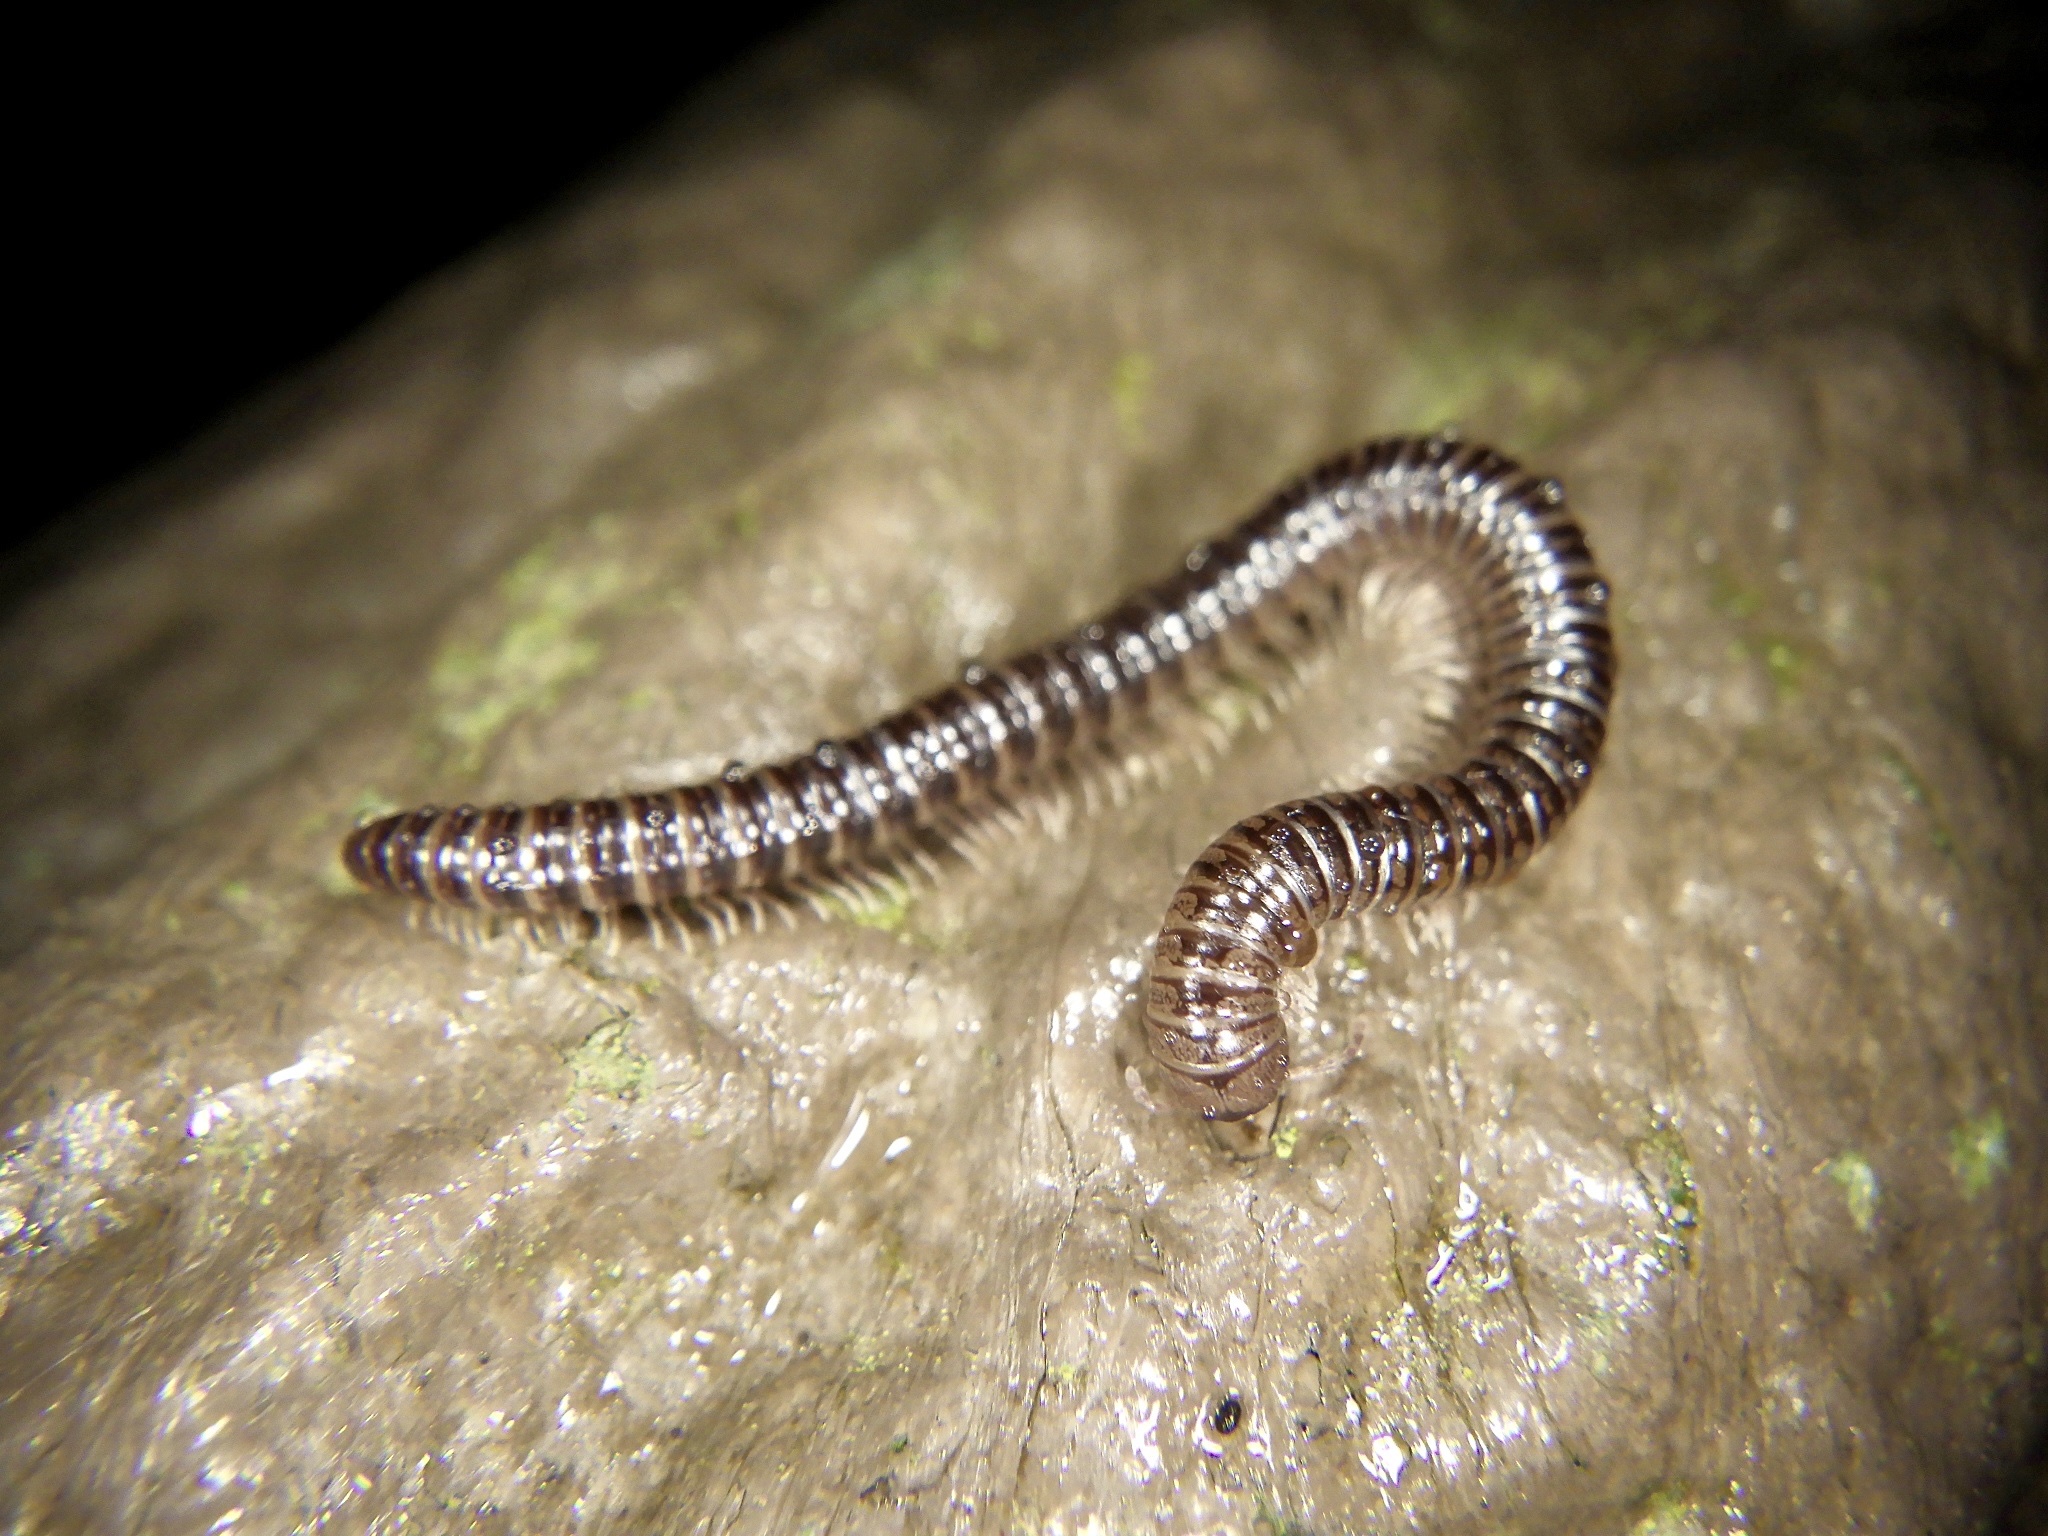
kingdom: Animalia
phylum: Arthropoda
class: Diplopoda
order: Julida
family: Julidae
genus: Japanioiulus
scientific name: Japanioiulus lobatus
